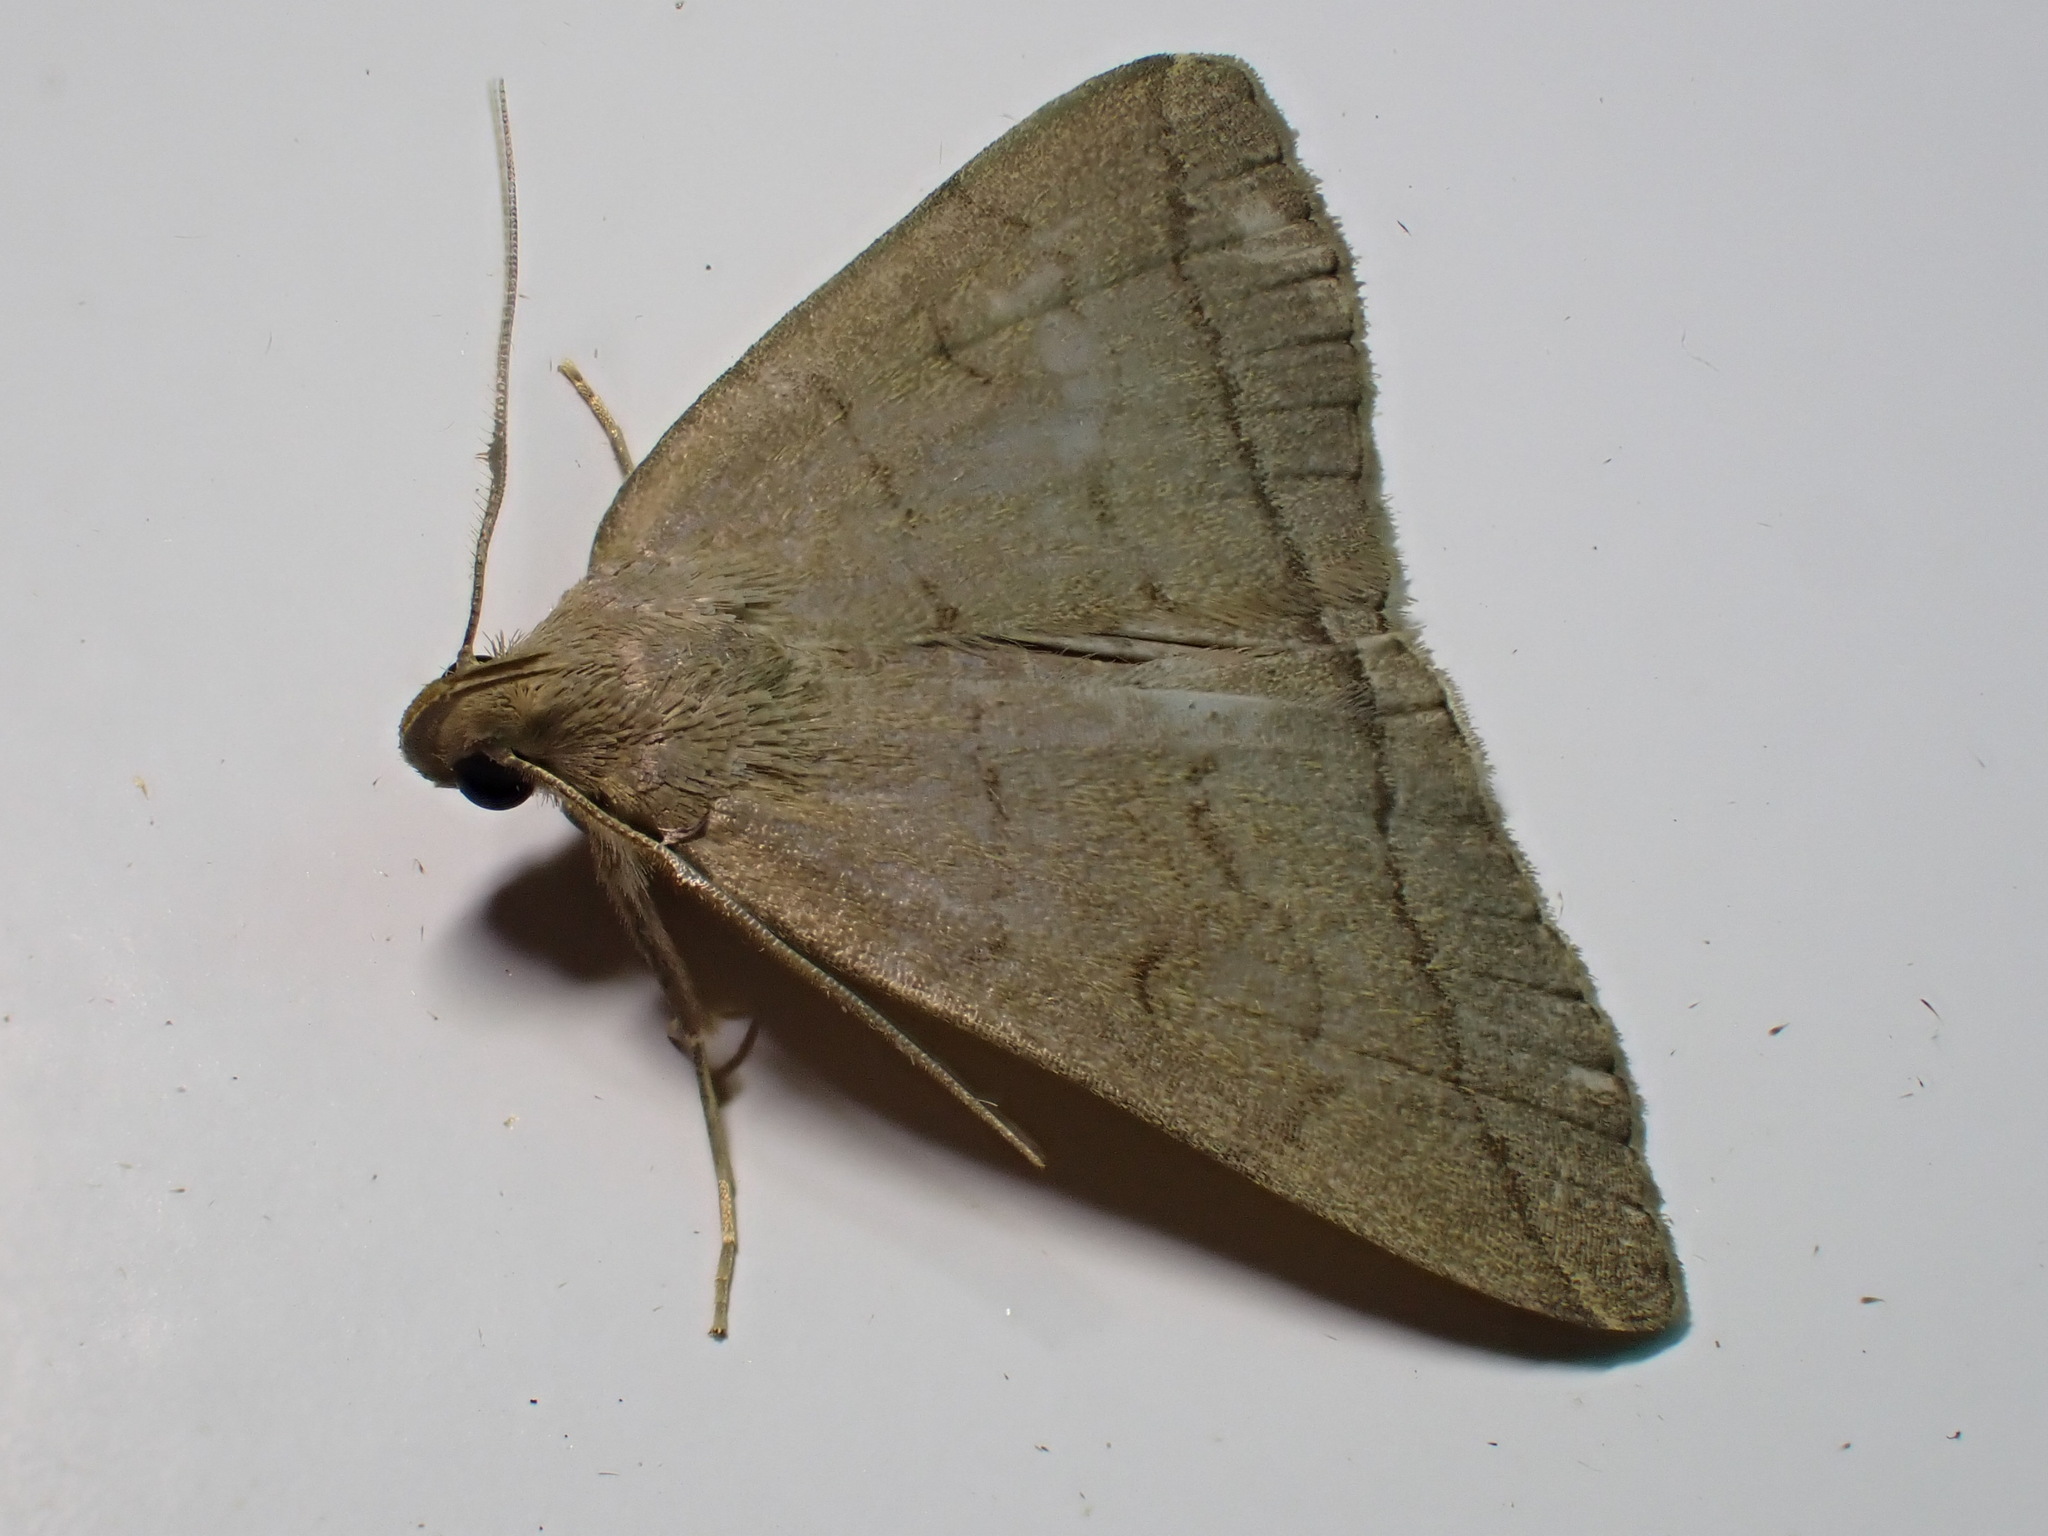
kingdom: Animalia
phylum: Arthropoda
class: Insecta
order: Lepidoptera
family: Erebidae
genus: Herminia
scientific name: Herminia tarsipennalis
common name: Fan-foot
